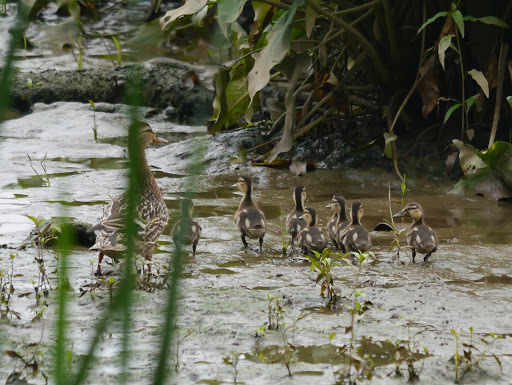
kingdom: Animalia
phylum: Chordata
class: Aves
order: Anseriformes
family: Anatidae
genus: Anas
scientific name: Anas platyrhynchos
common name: Mallard
